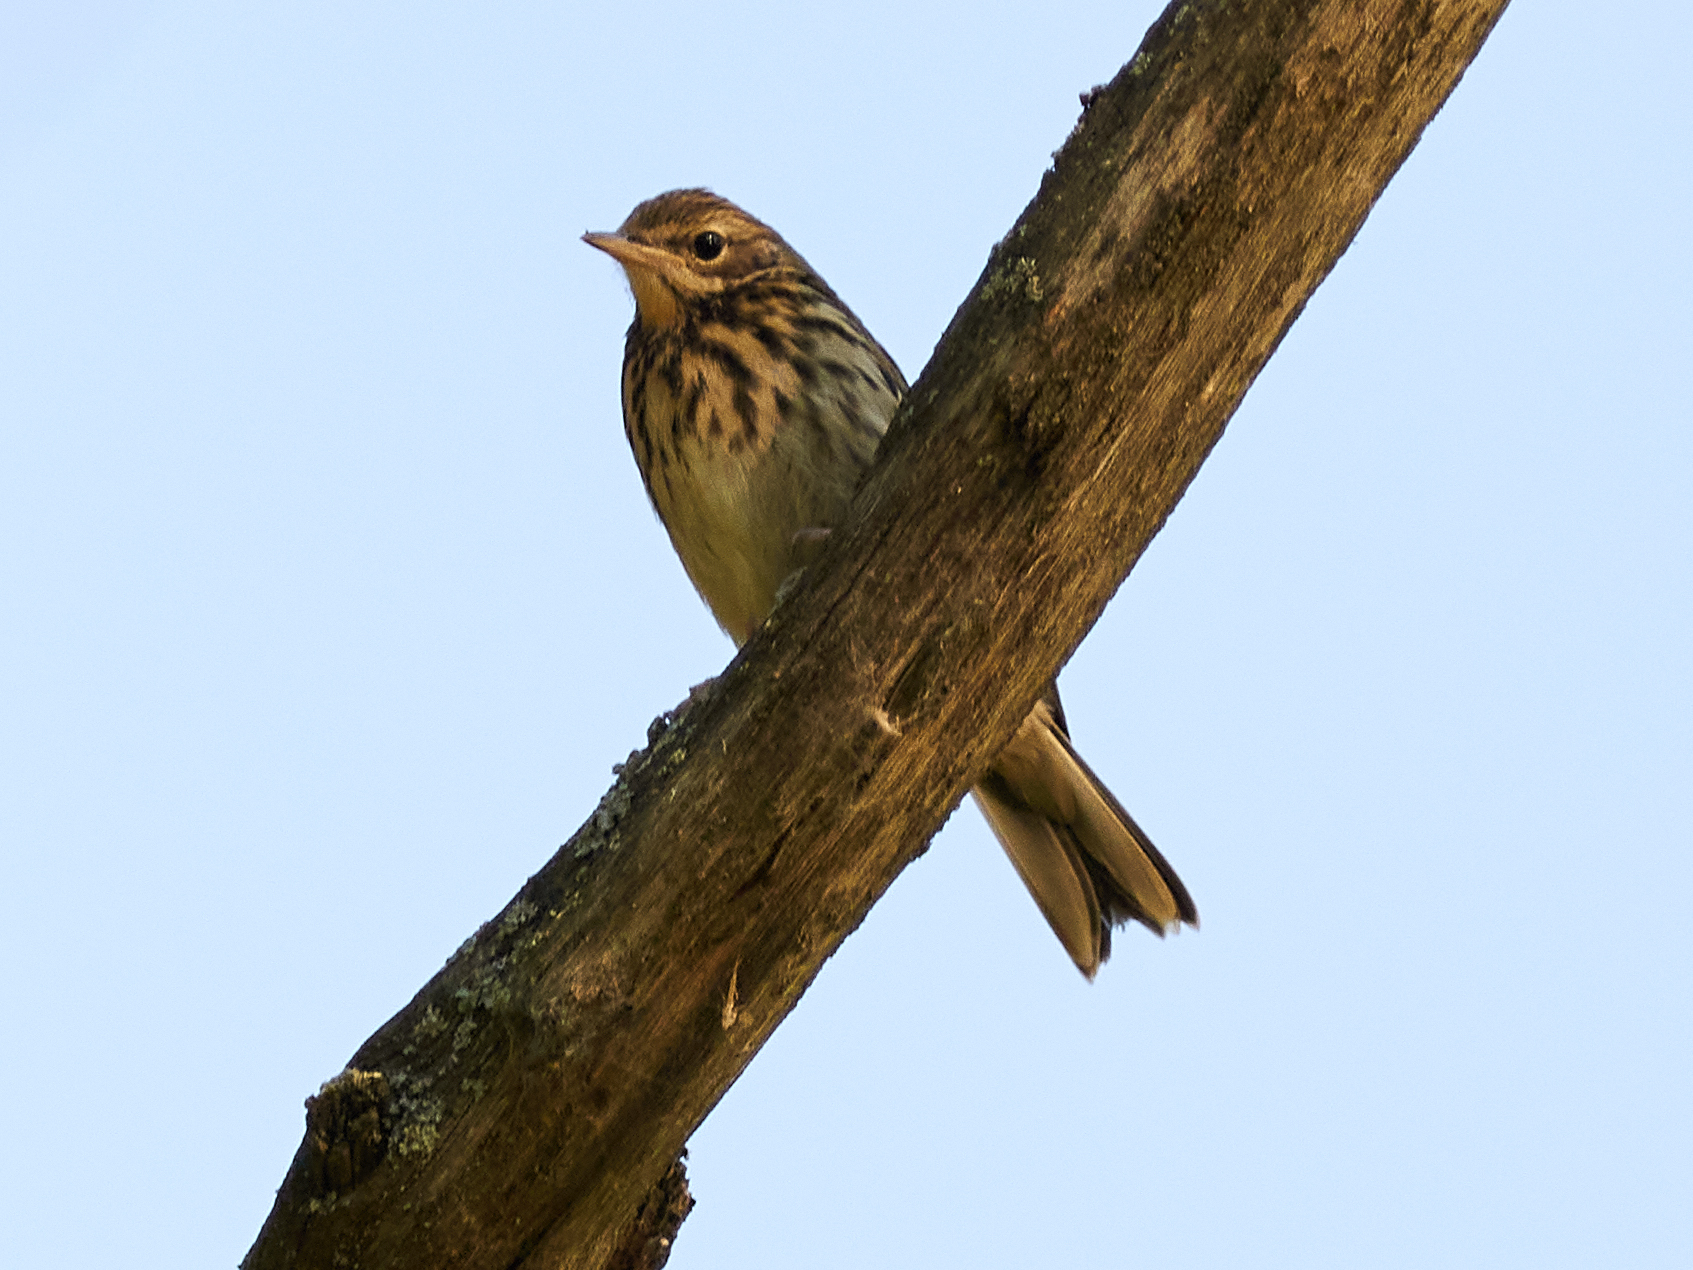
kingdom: Animalia
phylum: Chordata
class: Aves
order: Passeriformes
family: Motacillidae
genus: Anthus
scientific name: Anthus trivialis
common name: Tree pipit
